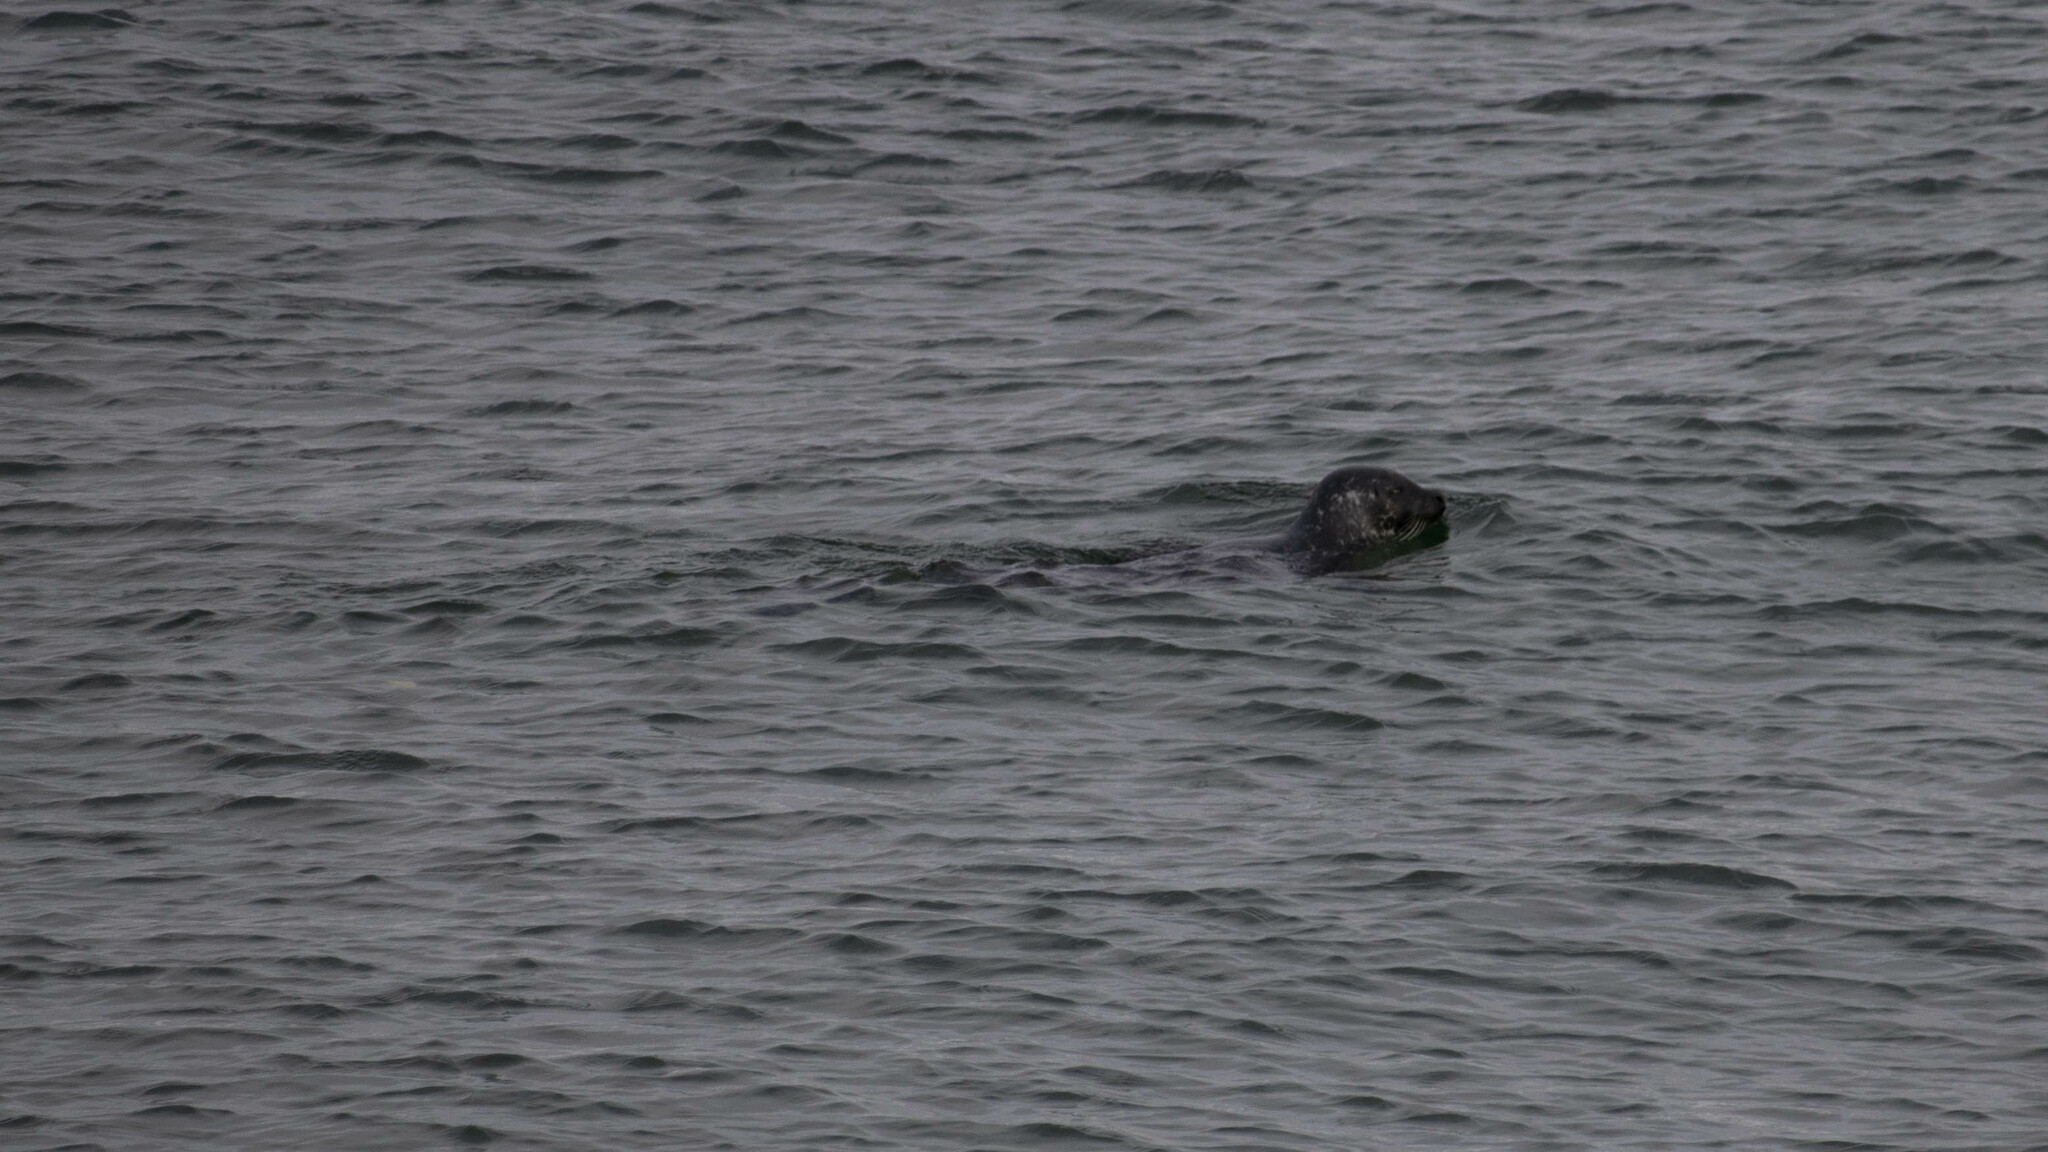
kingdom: Animalia
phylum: Chordata
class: Mammalia
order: Carnivora
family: Phocidae
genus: Phoca
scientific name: Phoca vitulina
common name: Harbor seal
